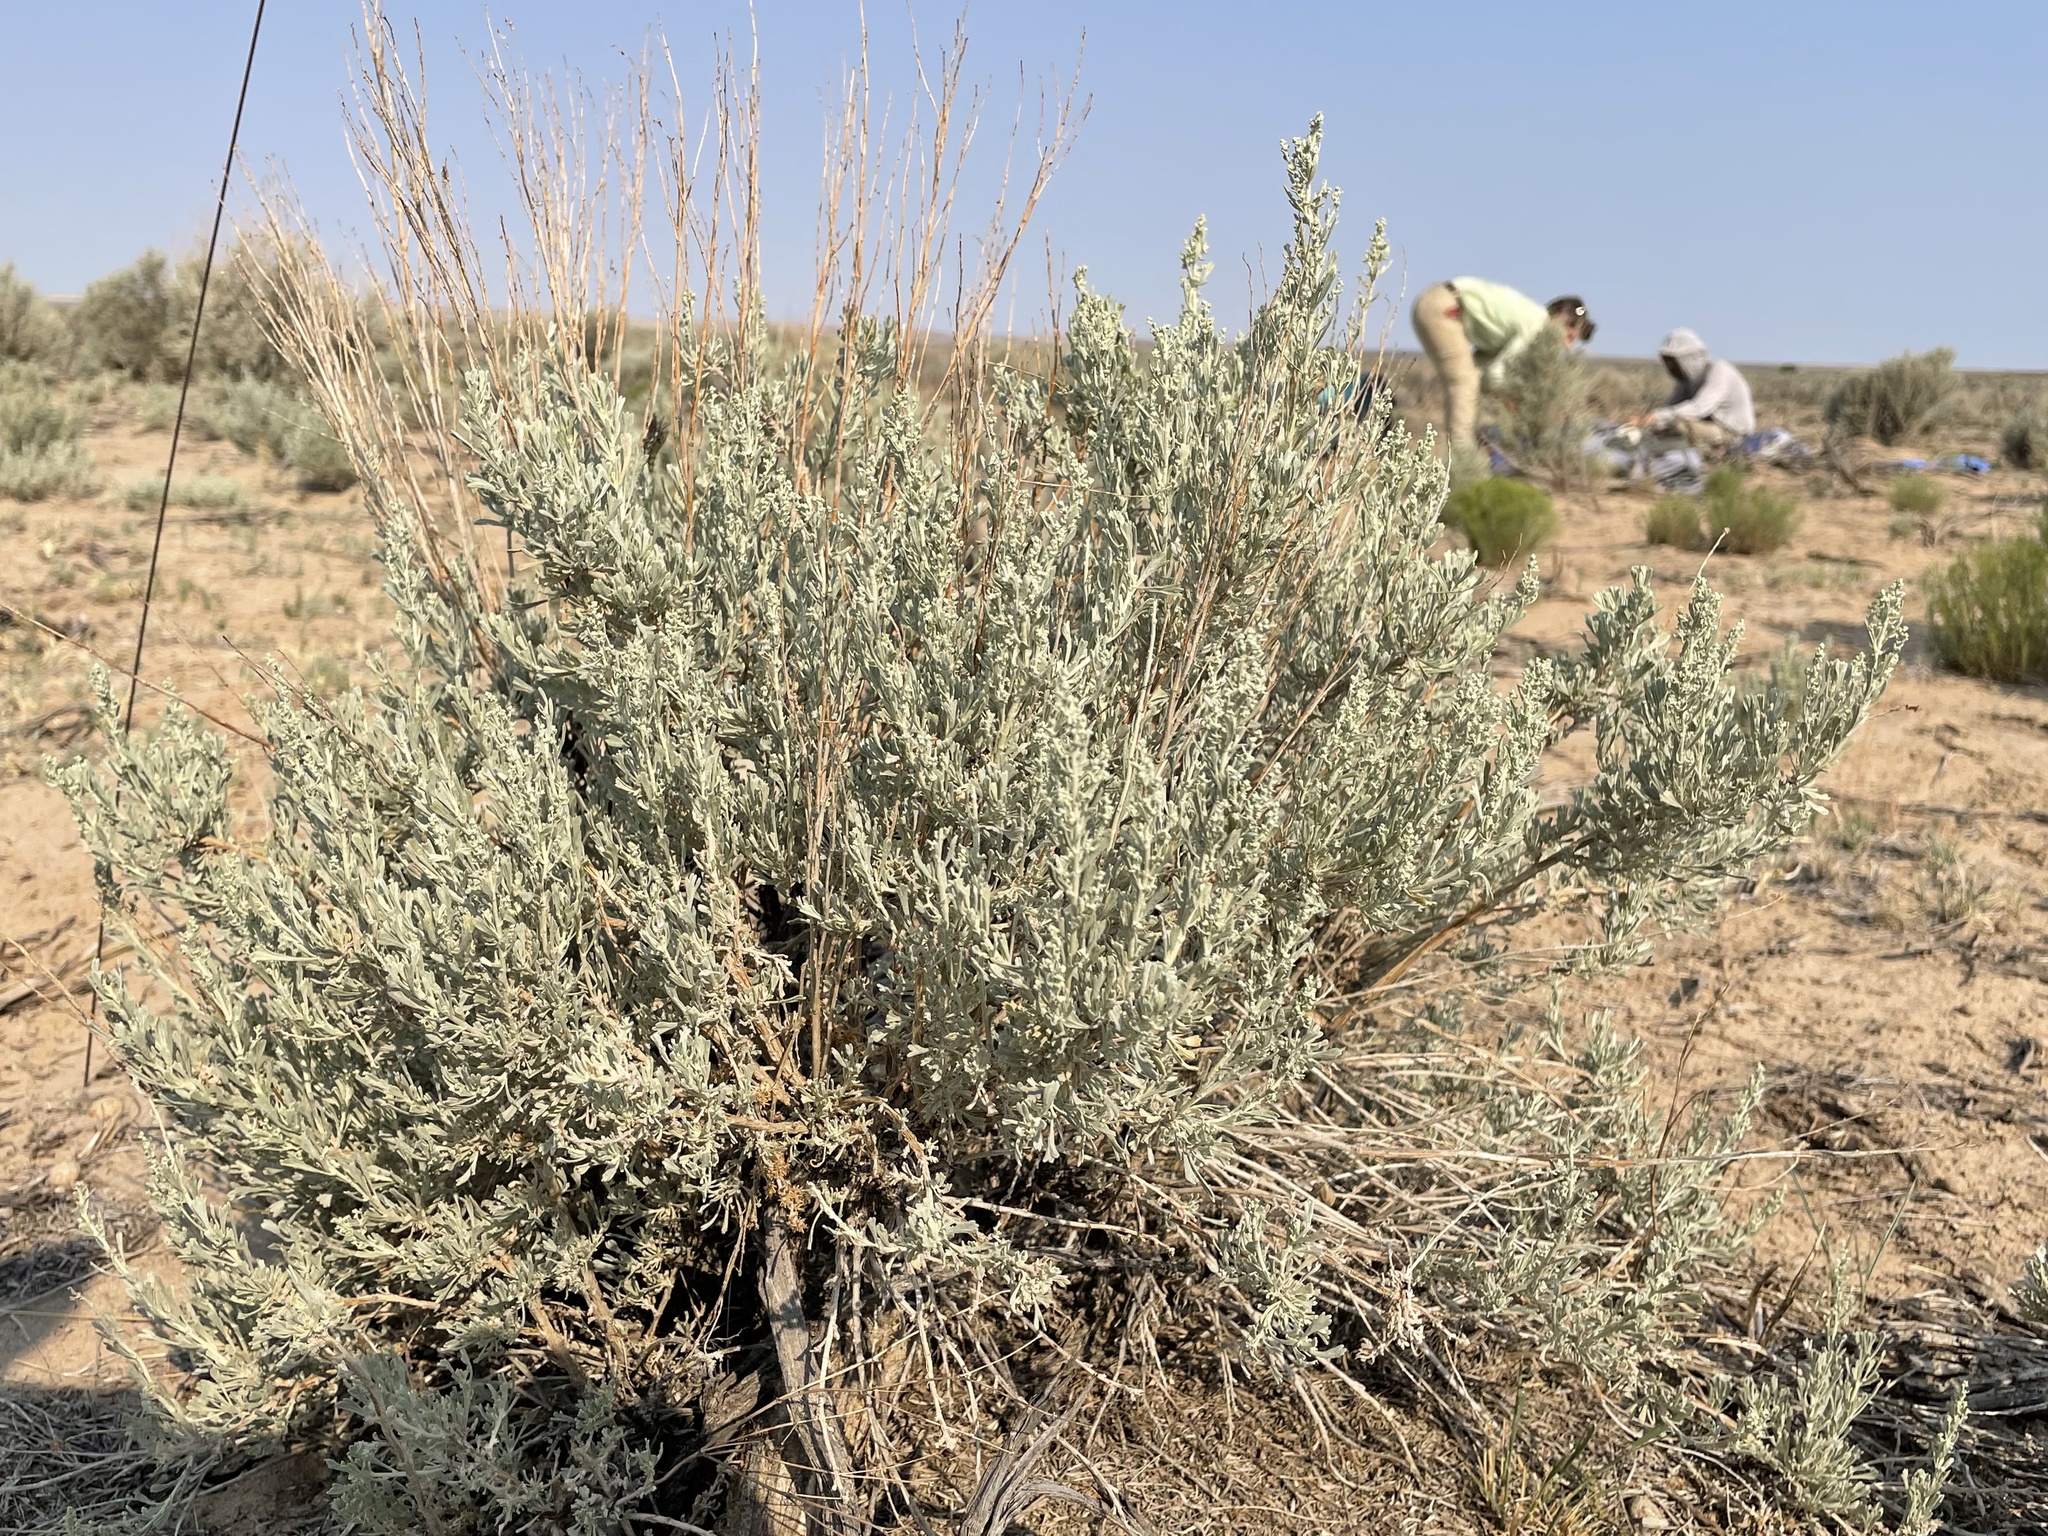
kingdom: Plantae
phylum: Tracheophyta
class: Magnoliopsida
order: Asterales
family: Asteraceae
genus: Artemisia
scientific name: Artemisia tridentata
